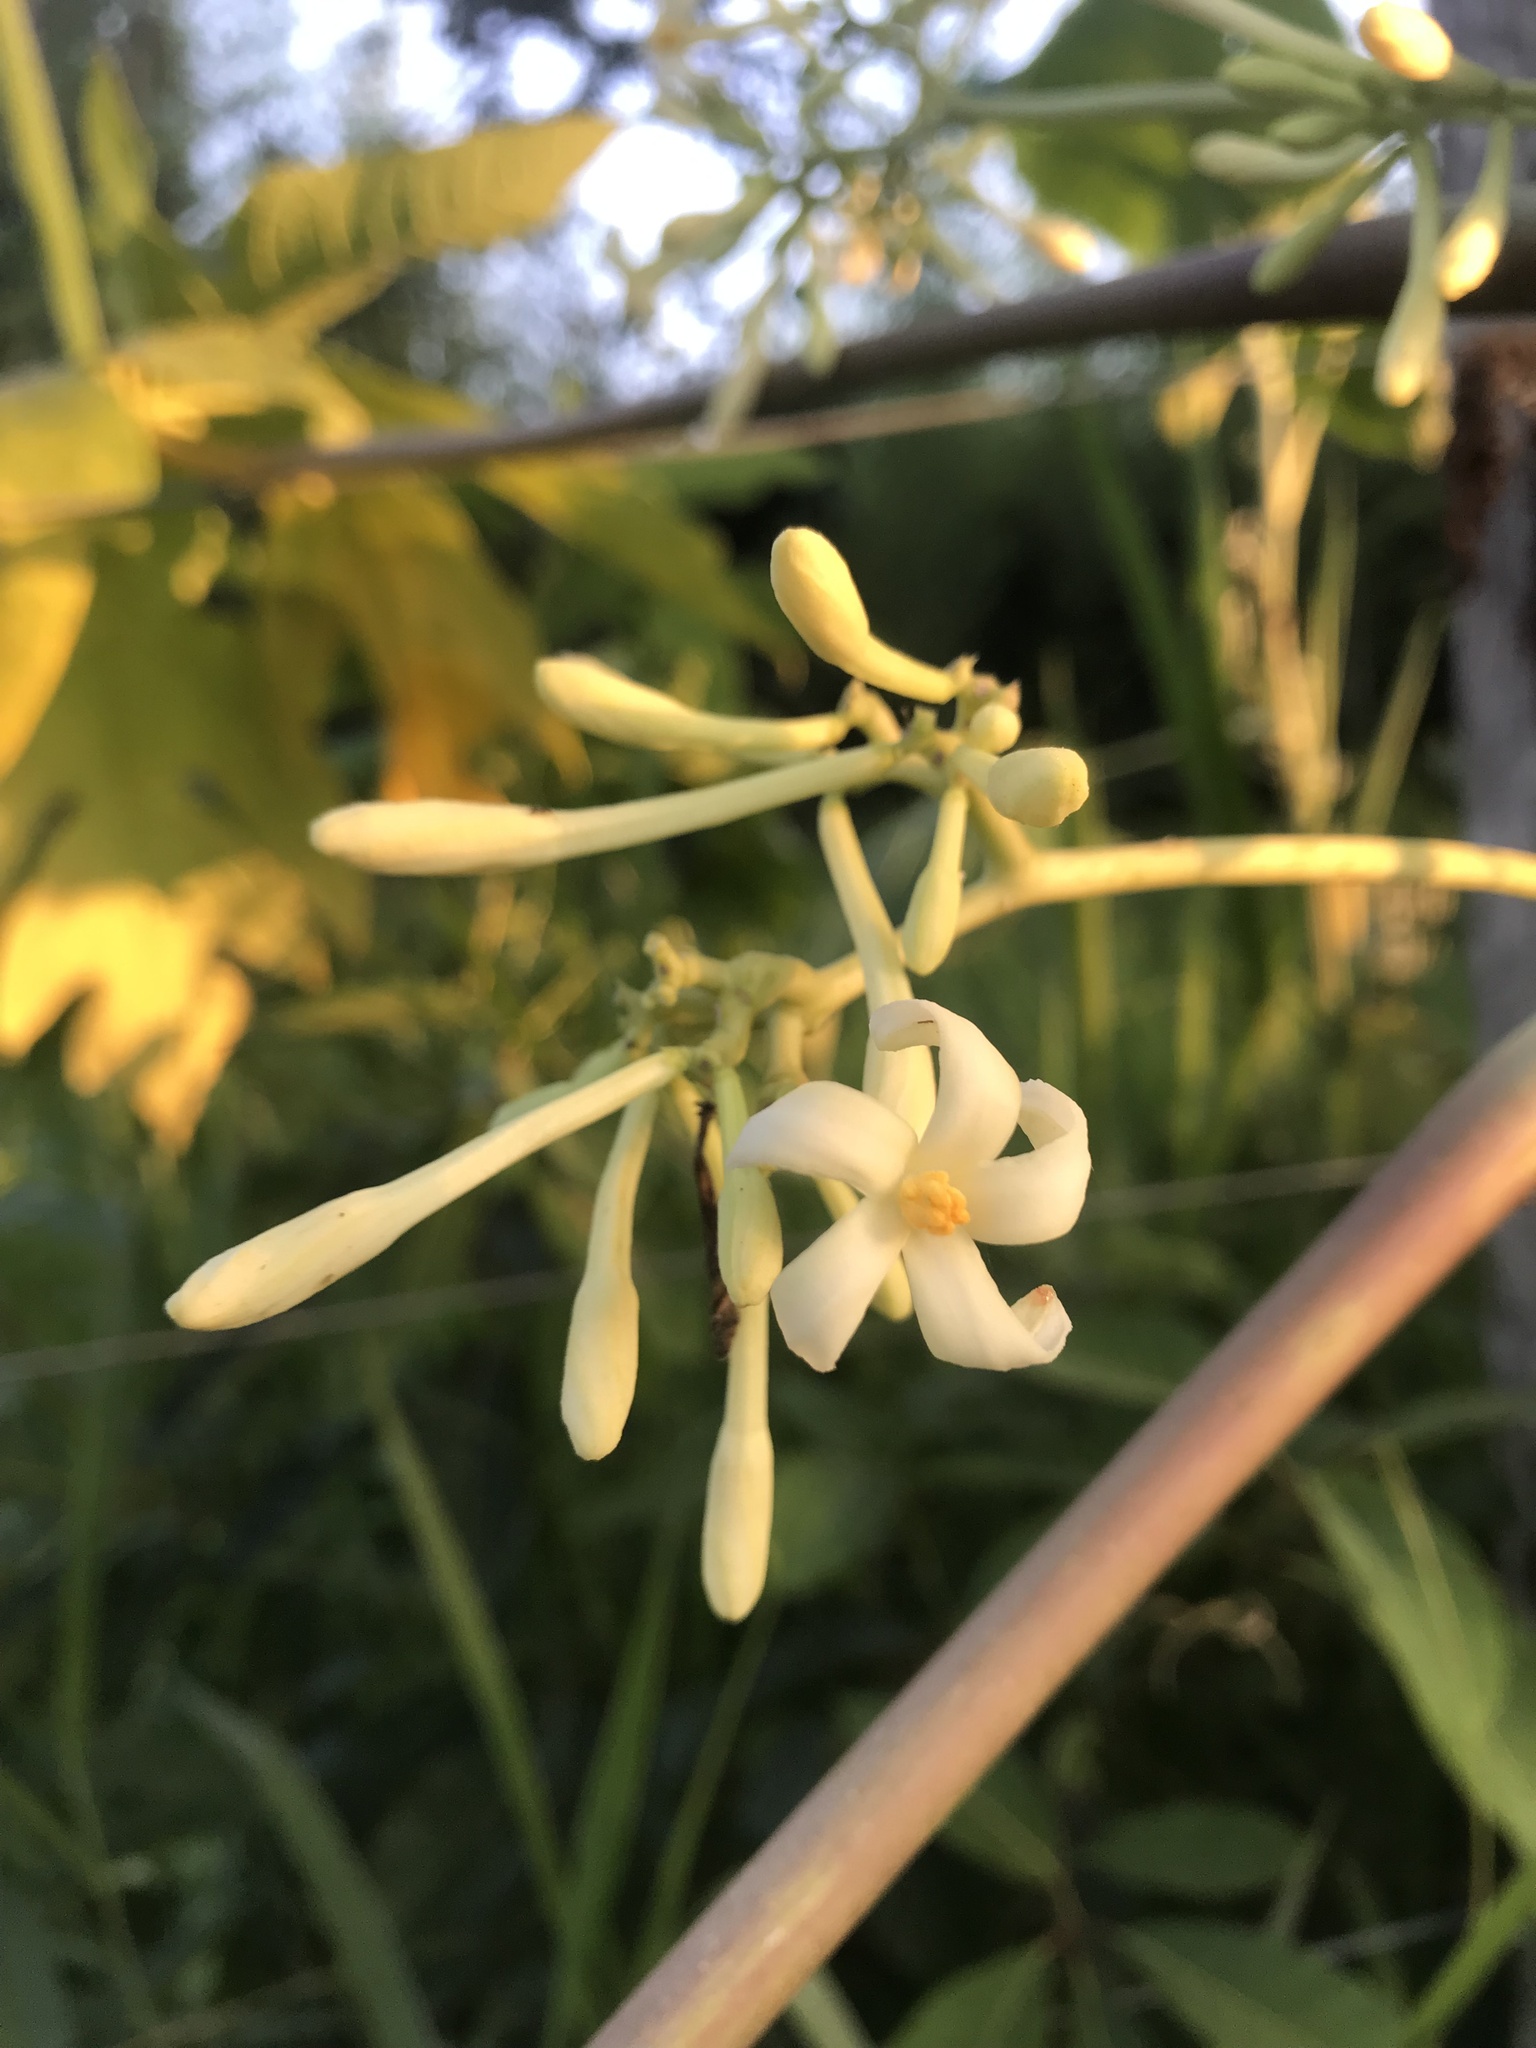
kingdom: Plantae
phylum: Tracheophyta
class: Magnoliopsida
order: Brassicales
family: Caricaceae
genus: Carica
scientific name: Carica papaya
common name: Papaya
